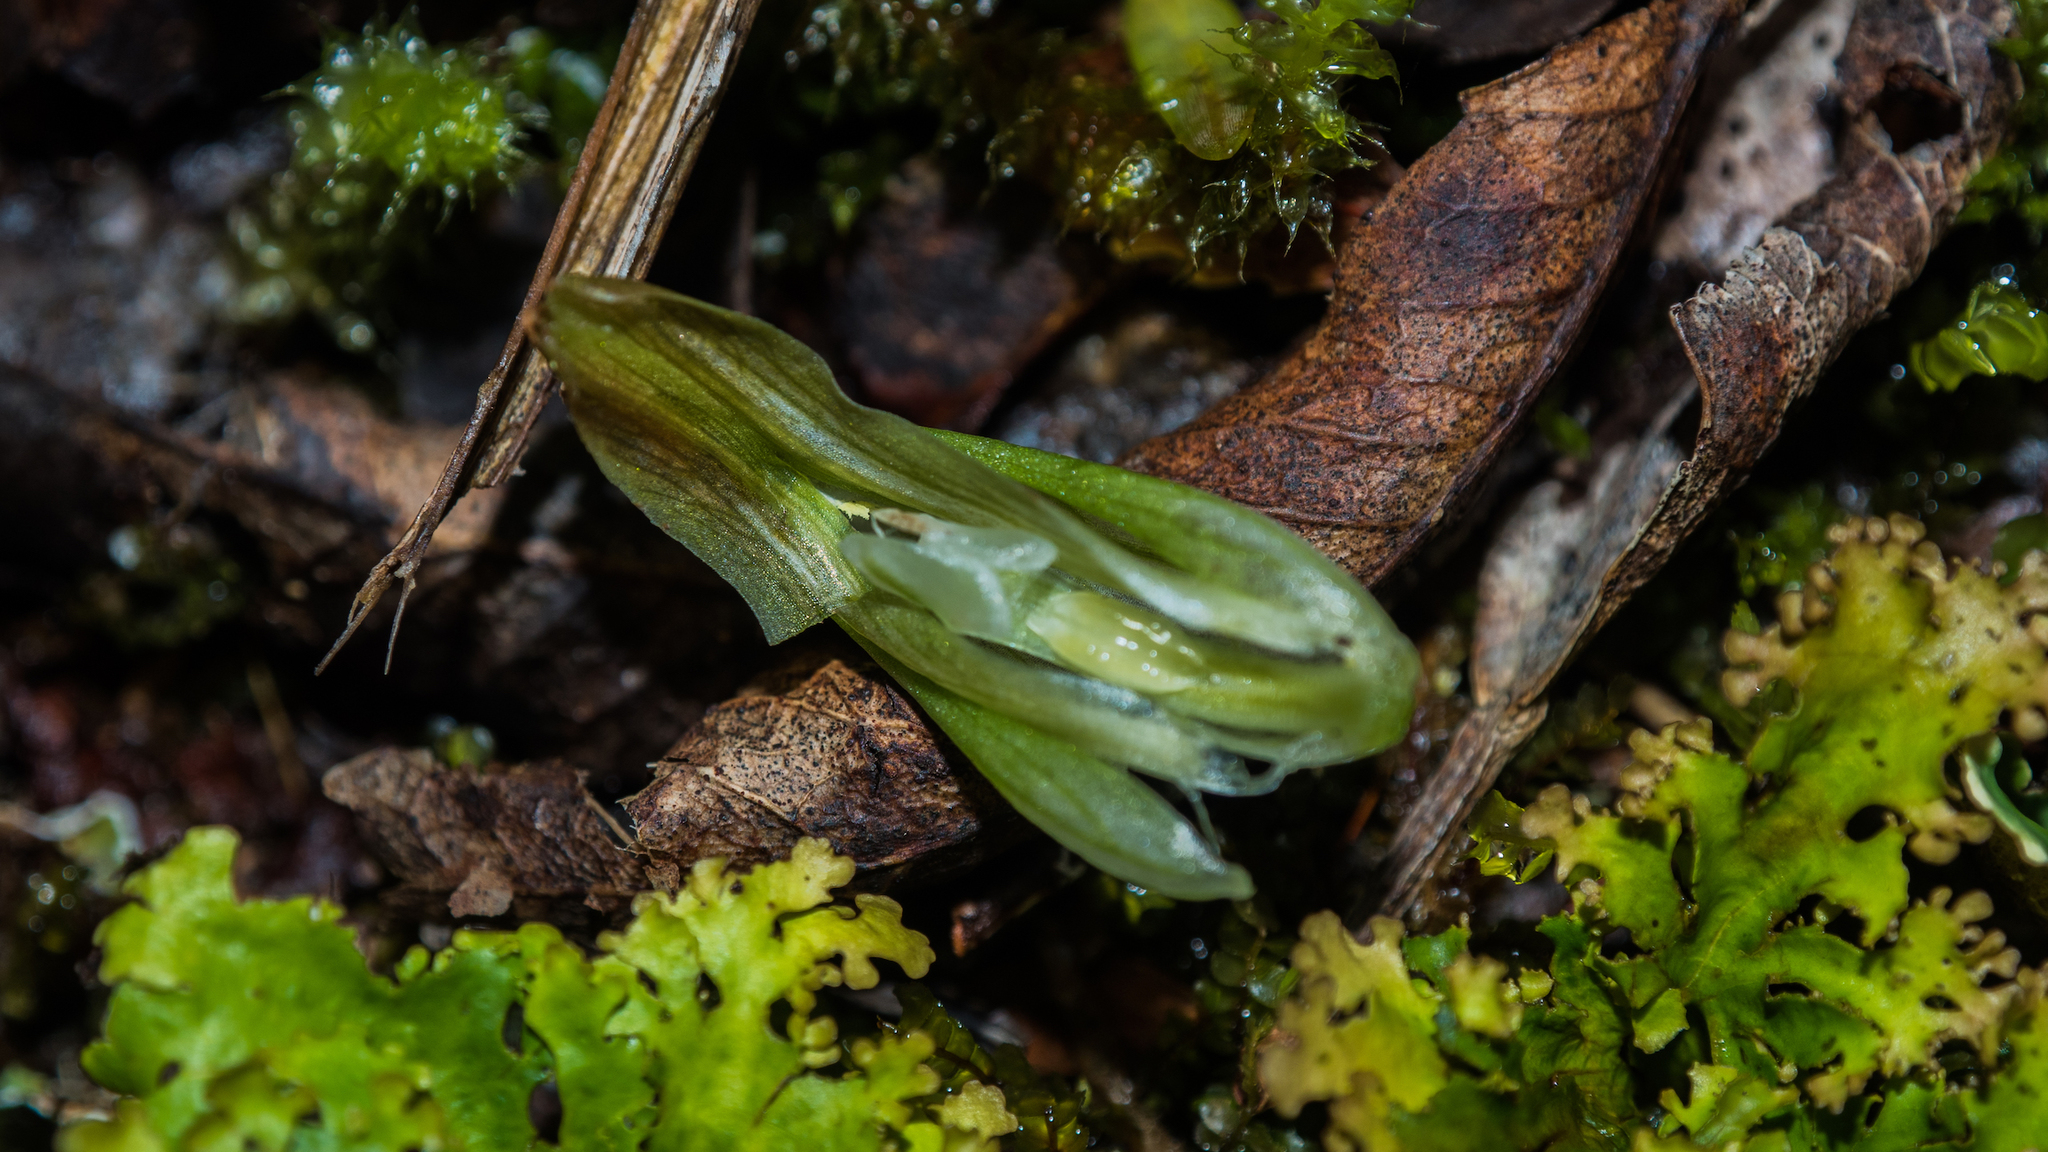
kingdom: Plantae
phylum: Tracheophyta
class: Liliopsida
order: Asparagales
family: Orchidaceae
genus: Pterostylis
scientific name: Pterostylis venosa
